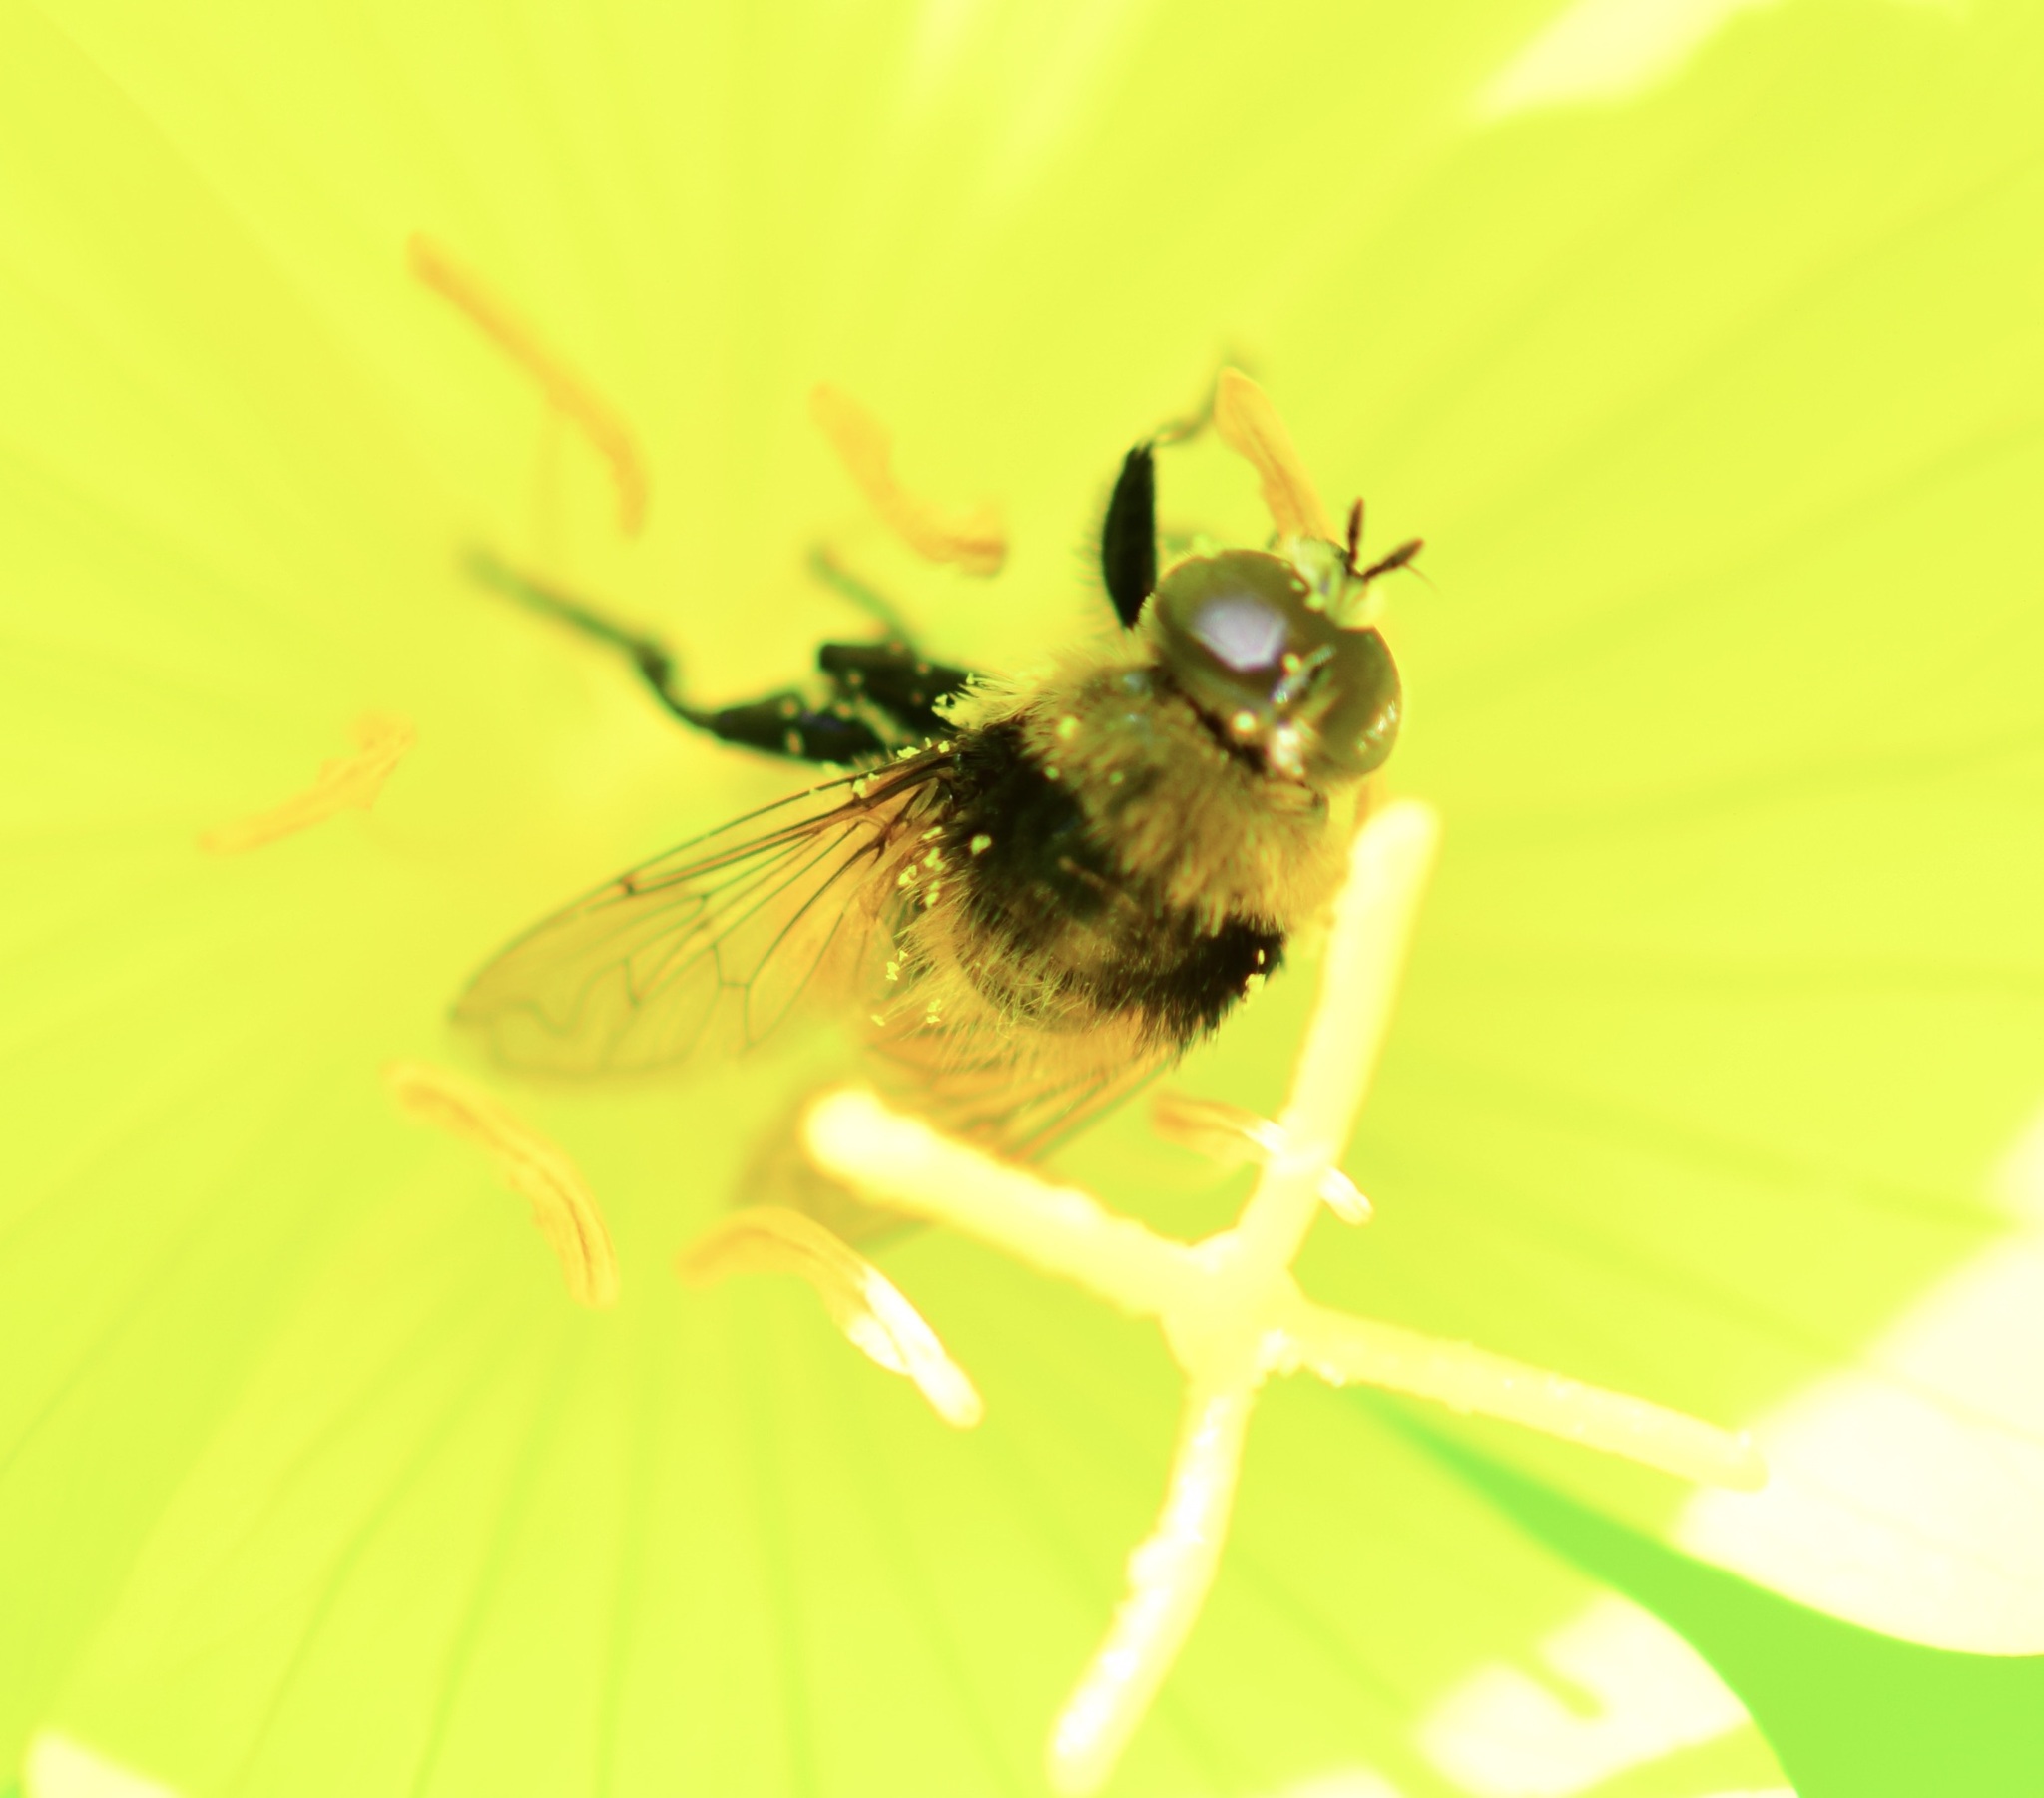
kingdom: Animalia
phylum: Arthropoda
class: Insecta
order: Diptera
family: Syrphidae
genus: Merodon
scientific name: Merodon equestris
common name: Greater bulb-fly
